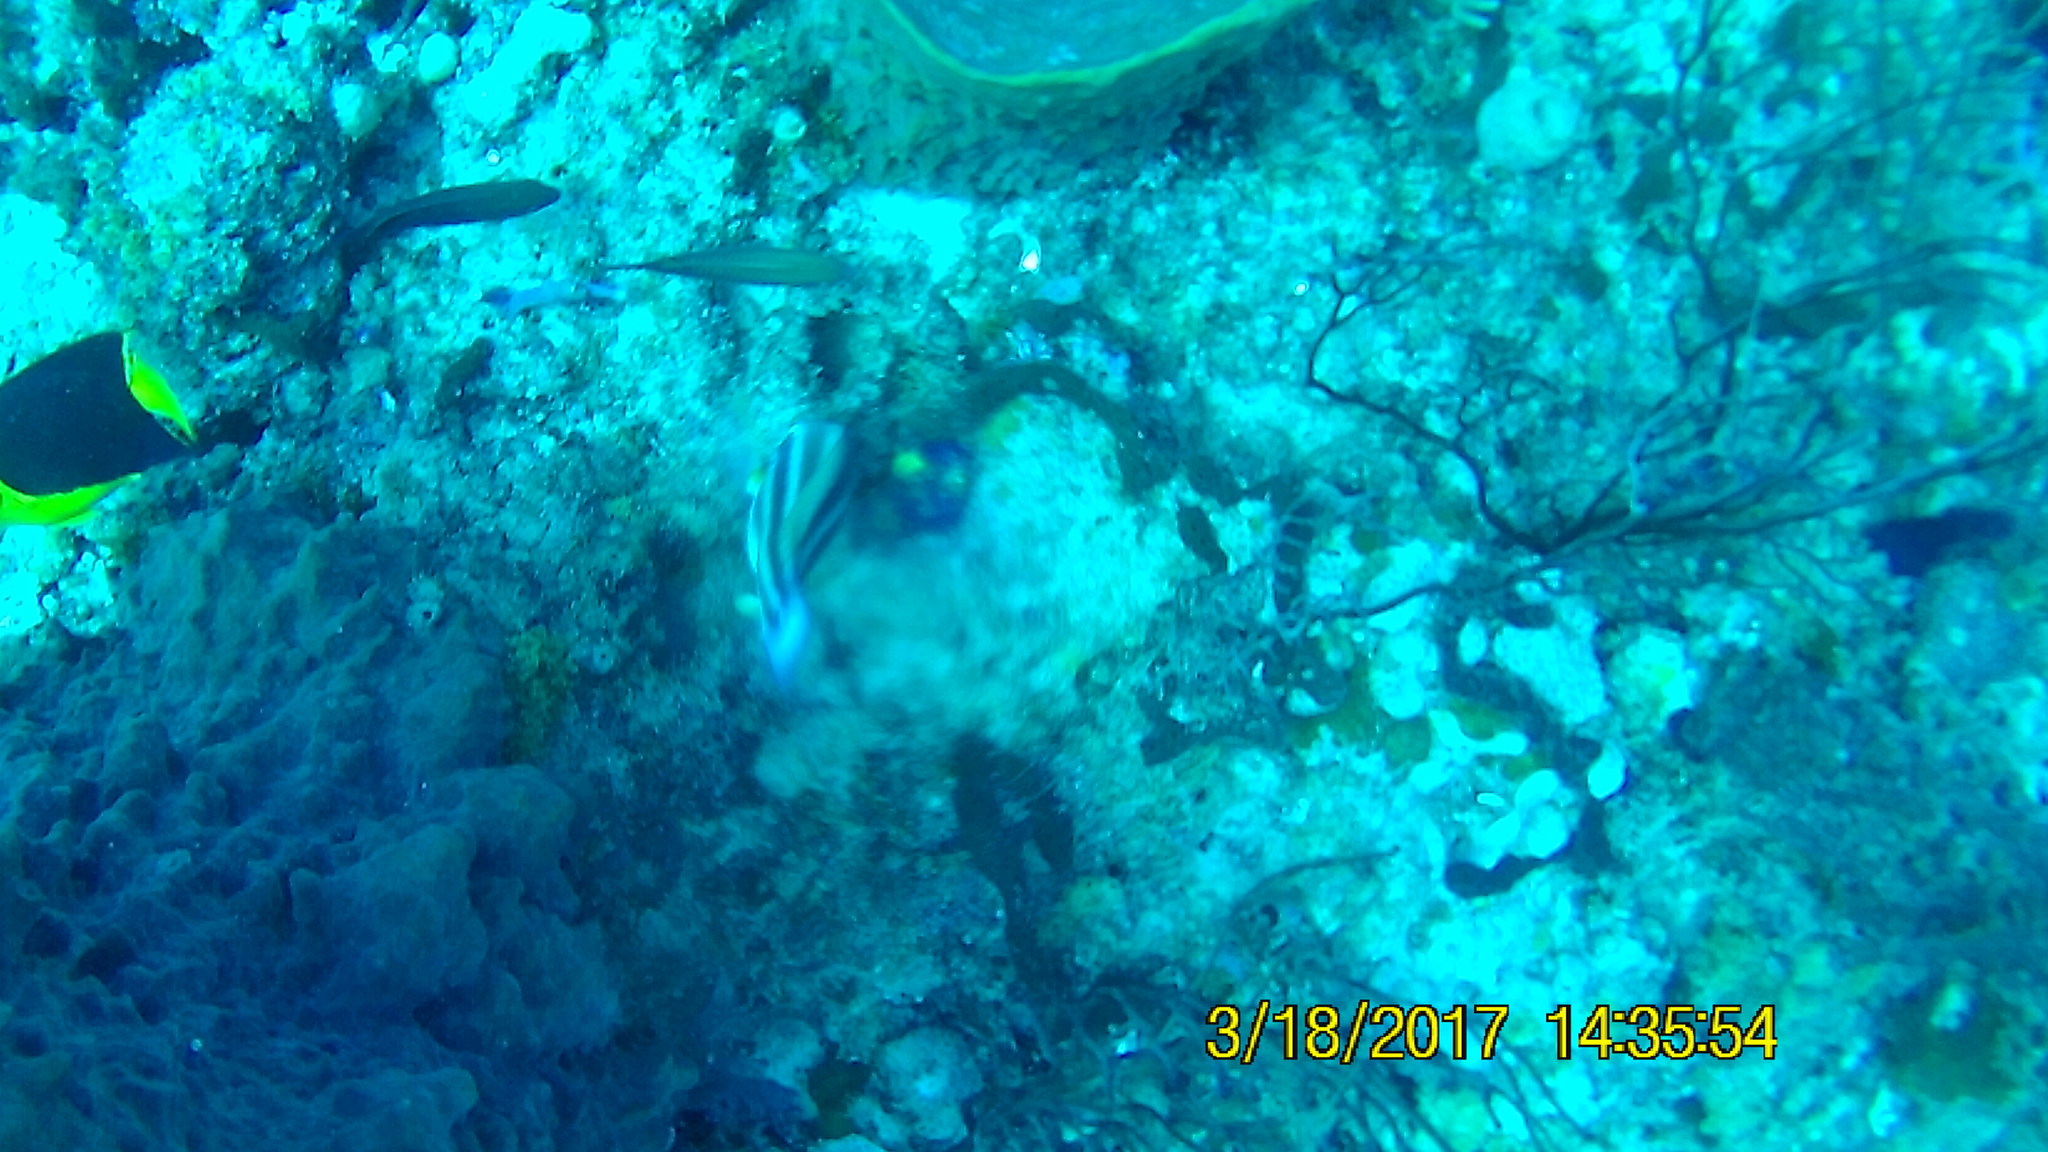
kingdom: Animalia
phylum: Chordata
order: Perciformes
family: Scaridae
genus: Scarus
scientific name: Scarus iseri
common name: Striped parrotfish
